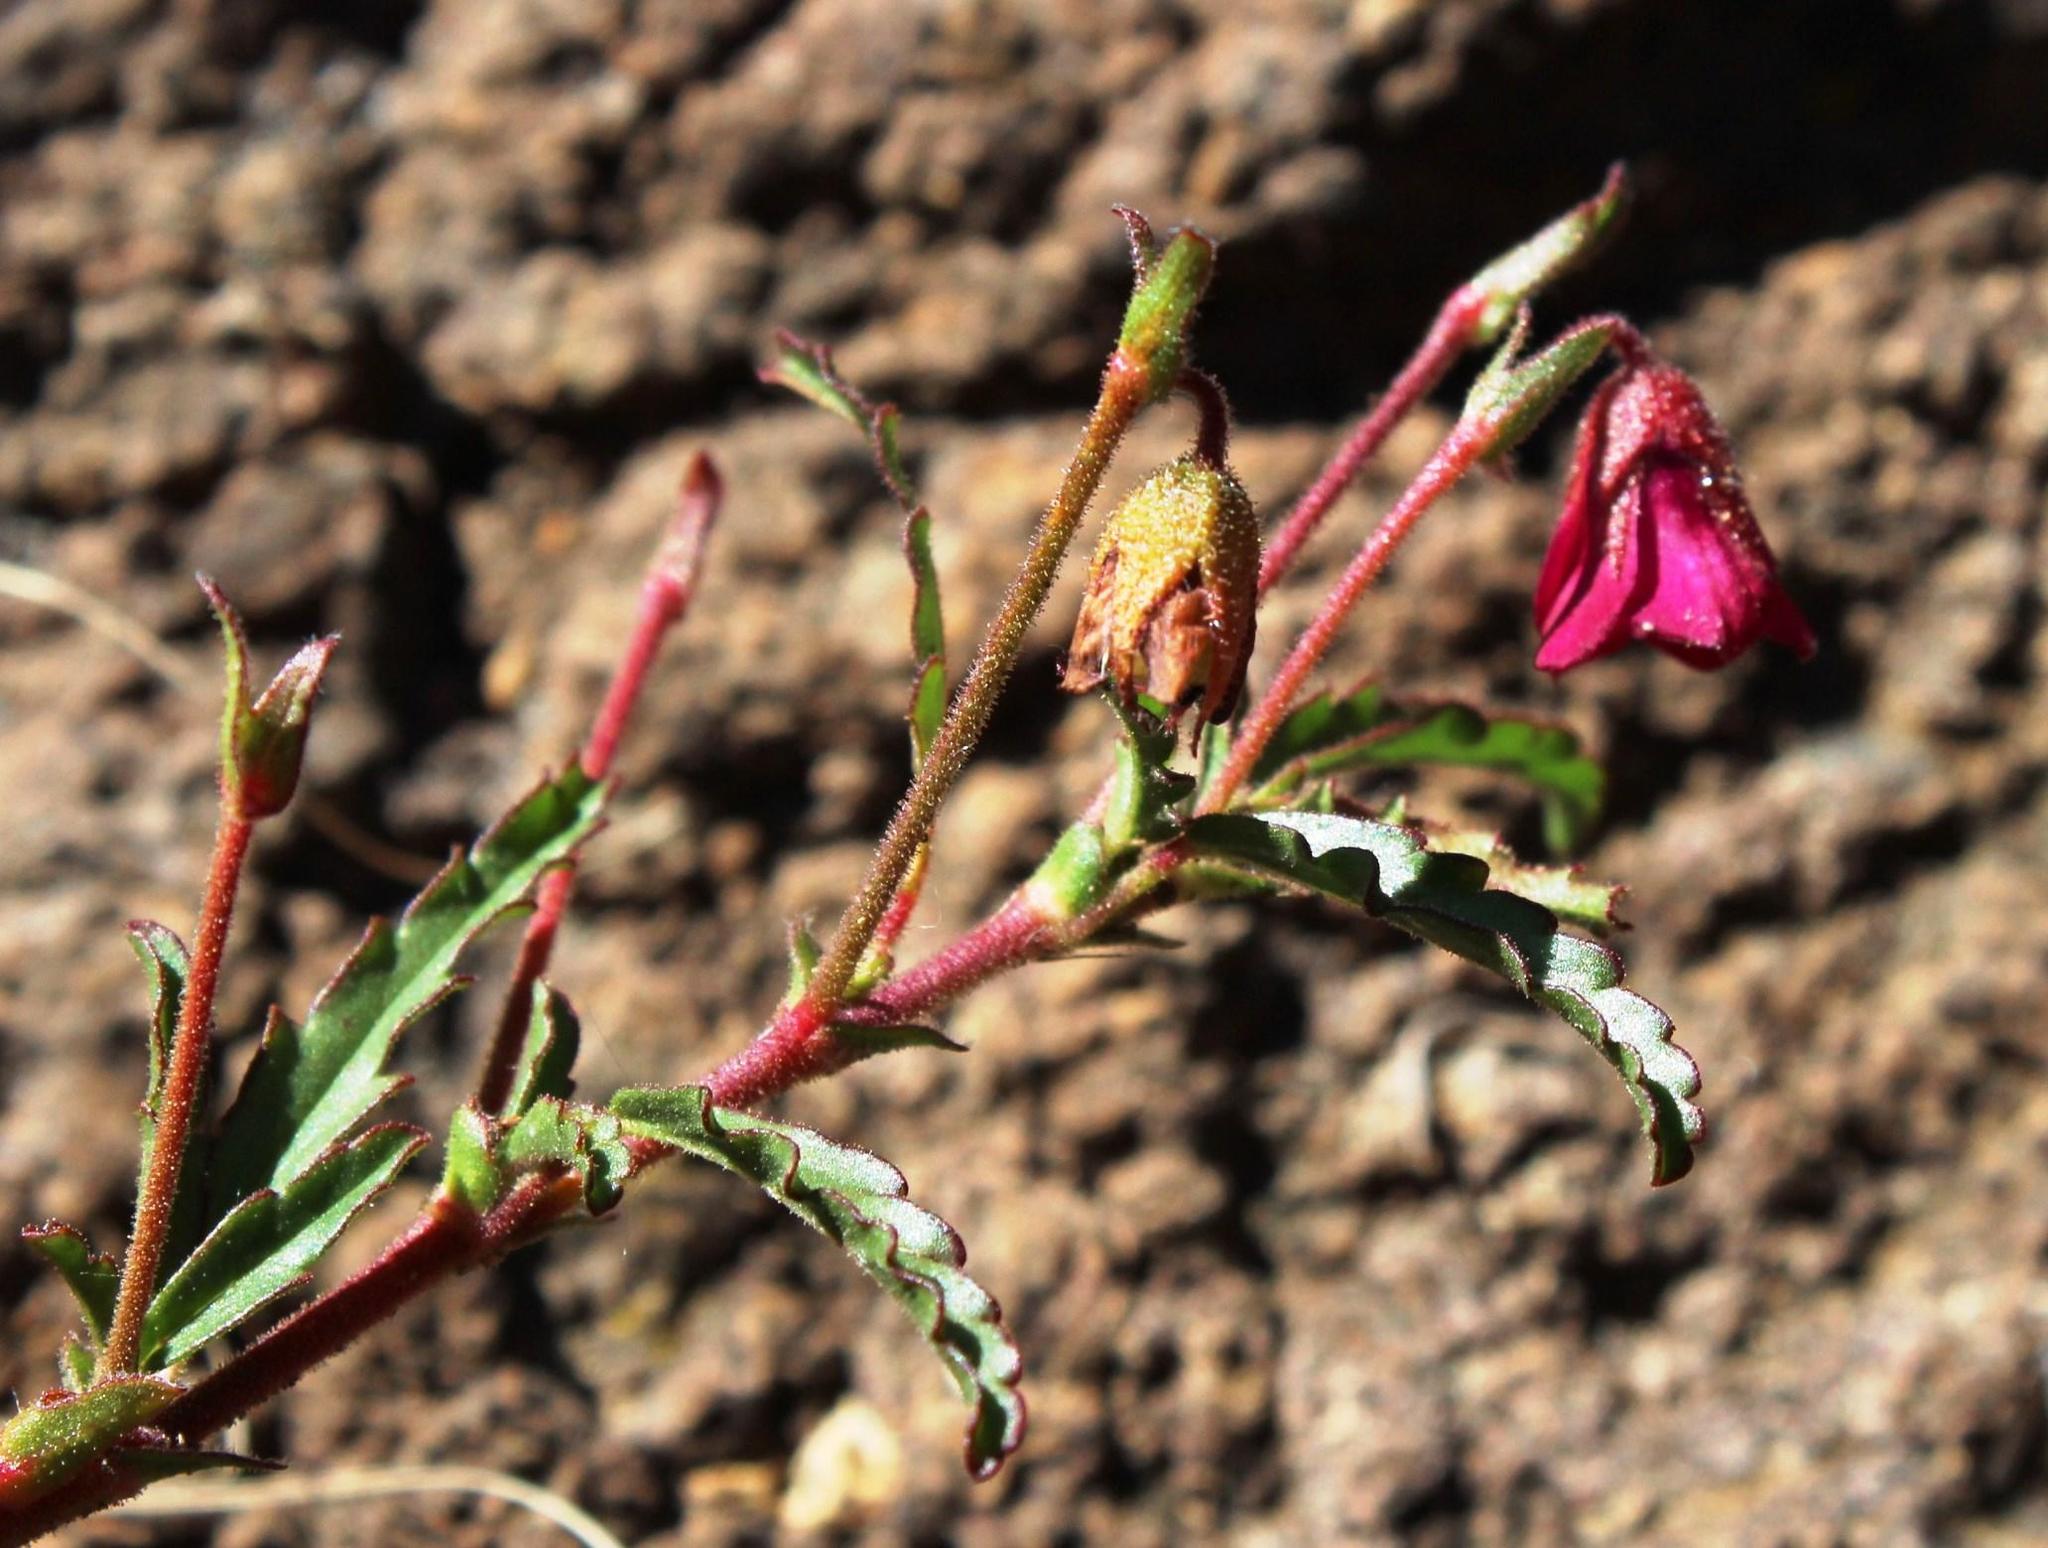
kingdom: Plantae
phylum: Tracheophyta
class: Magnoliopsida
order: Malvales
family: Malvaceae
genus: Hermannia
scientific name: Hermannia coccocarpa
